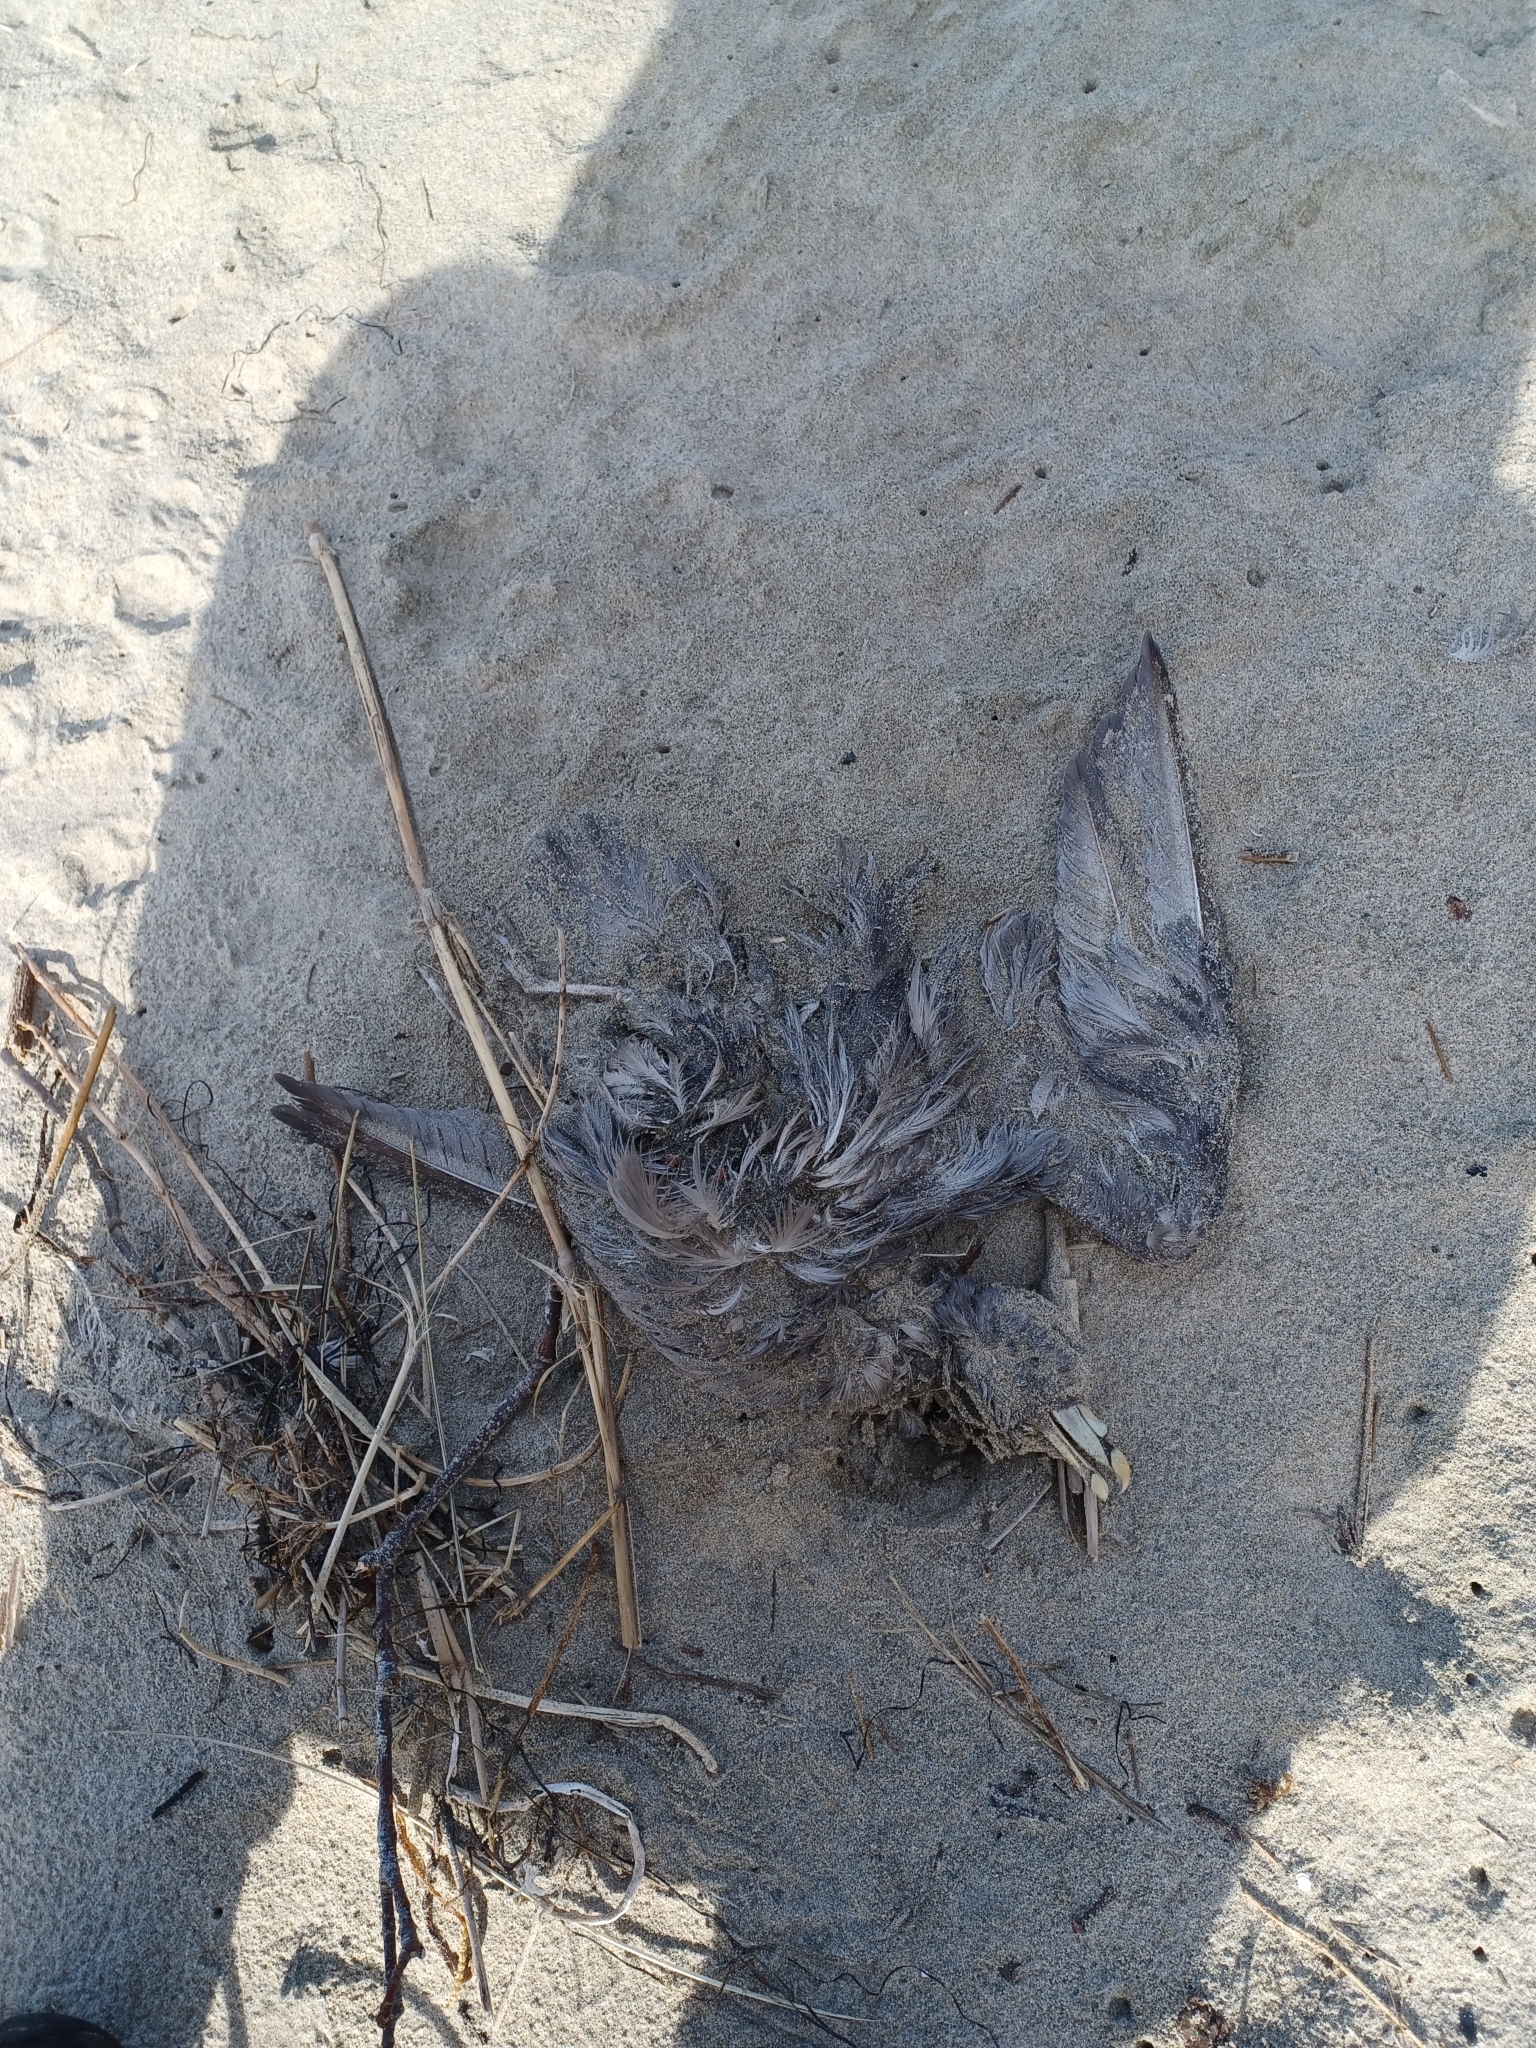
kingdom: Animalia
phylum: Chordata
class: Aves
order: Procellariiformes
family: Procellariidae
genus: Fulmarus
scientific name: Fulmarus glacialis
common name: Northern fulmar
